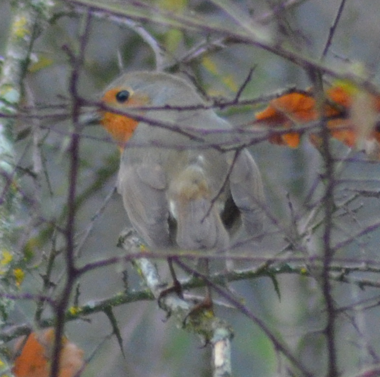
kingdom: Animalia
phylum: Chordata
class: Aves
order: Passeriformes
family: Muscicapidae
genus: Erithacus
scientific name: Erithacus rubecula
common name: European robin
